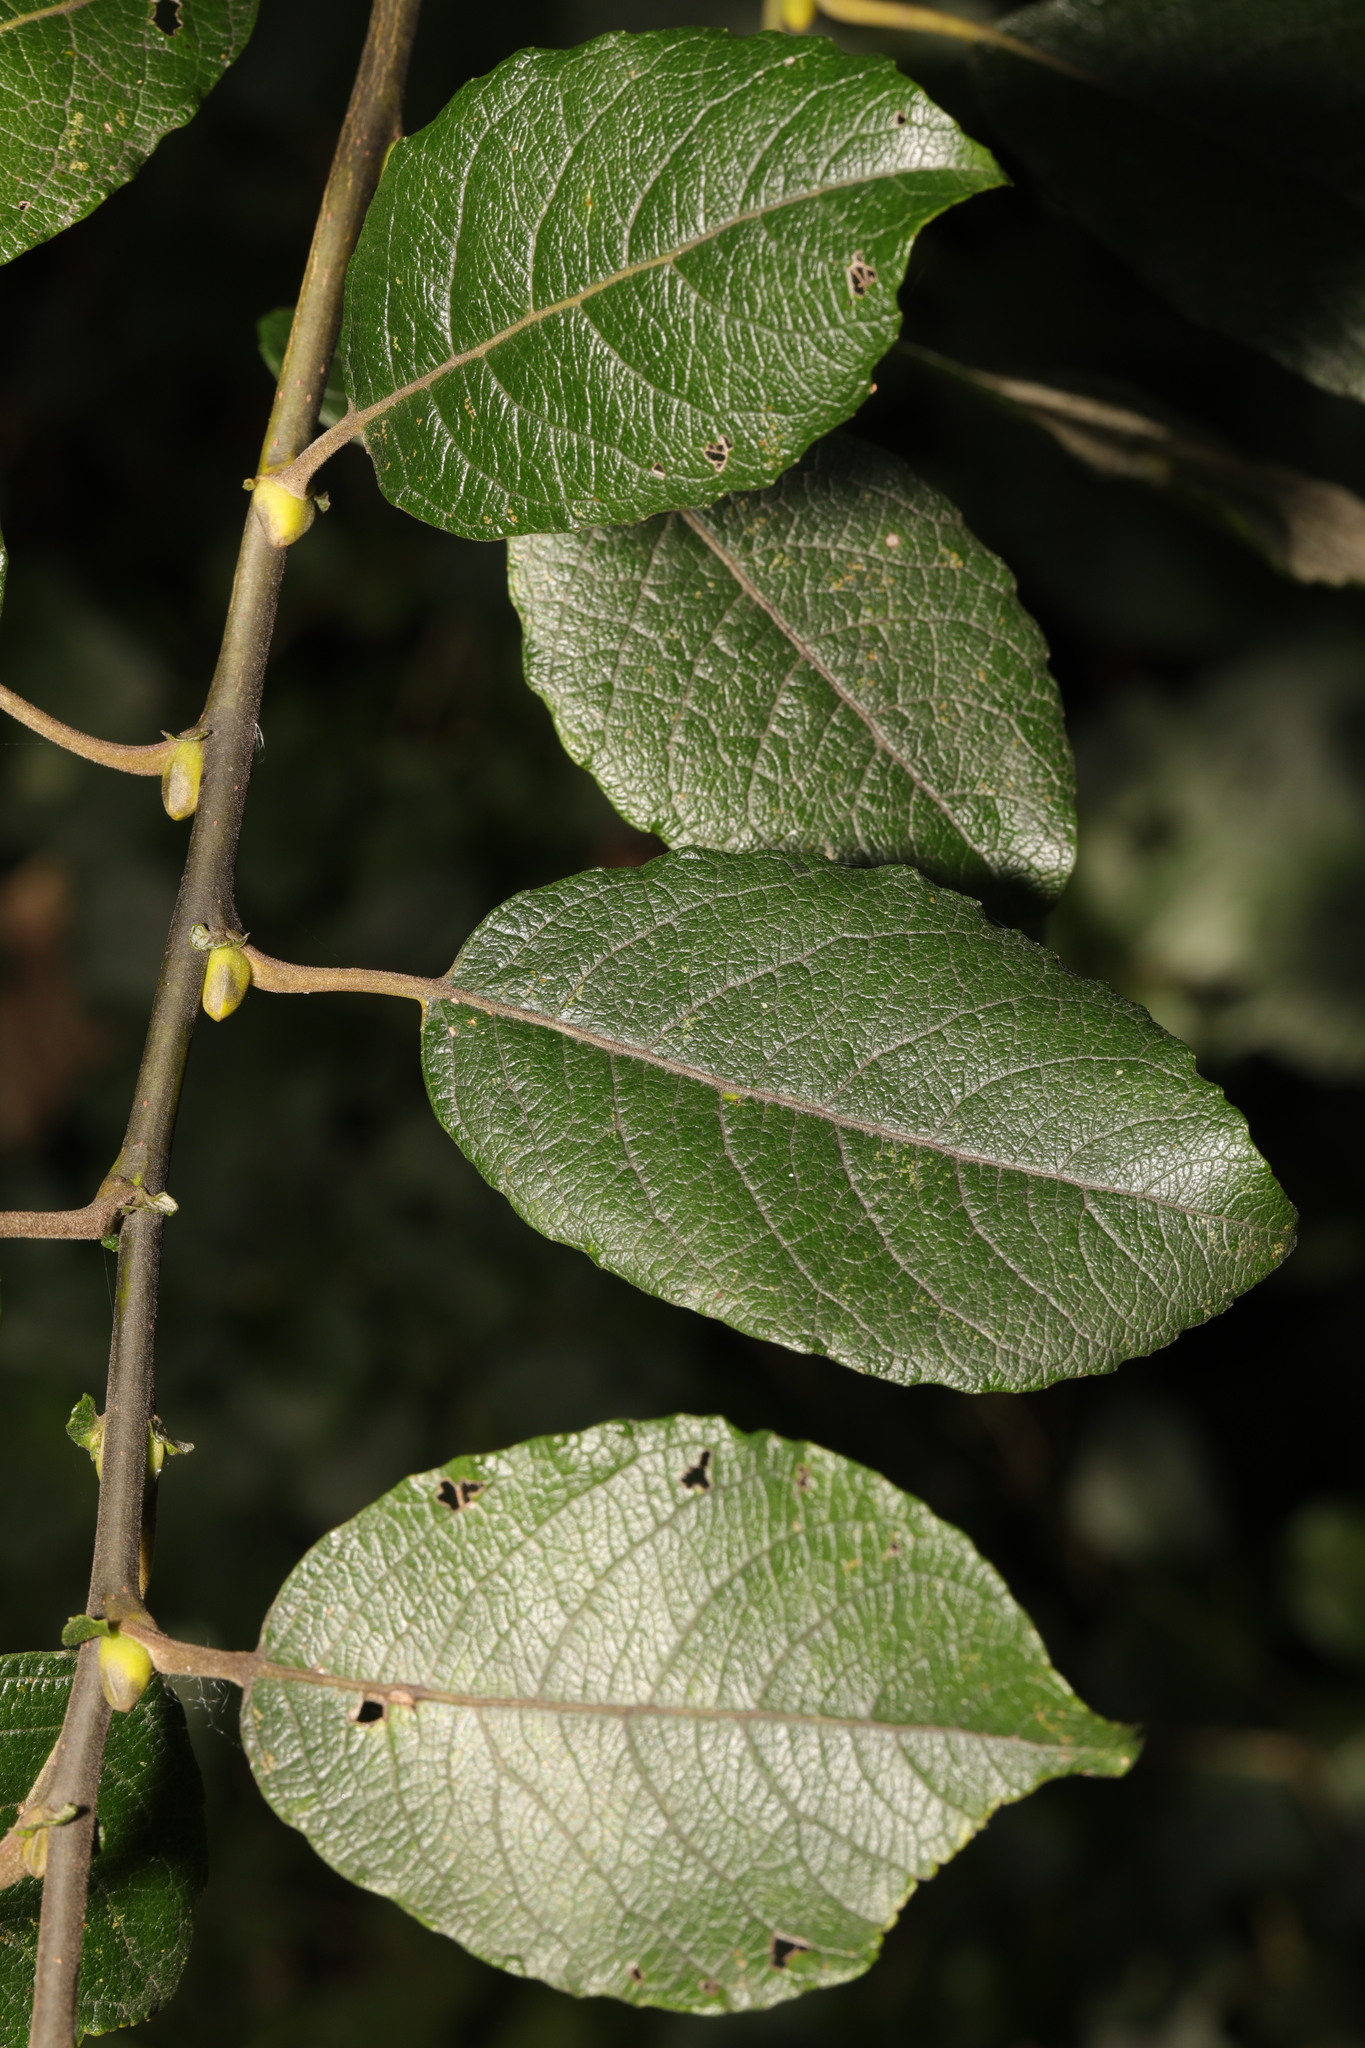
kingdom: Plantae
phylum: Tracheophyta
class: Magnoliopsida
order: Malpighiales
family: Salicaceae
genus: Salix
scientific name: Salix caprea
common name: Goat willow
